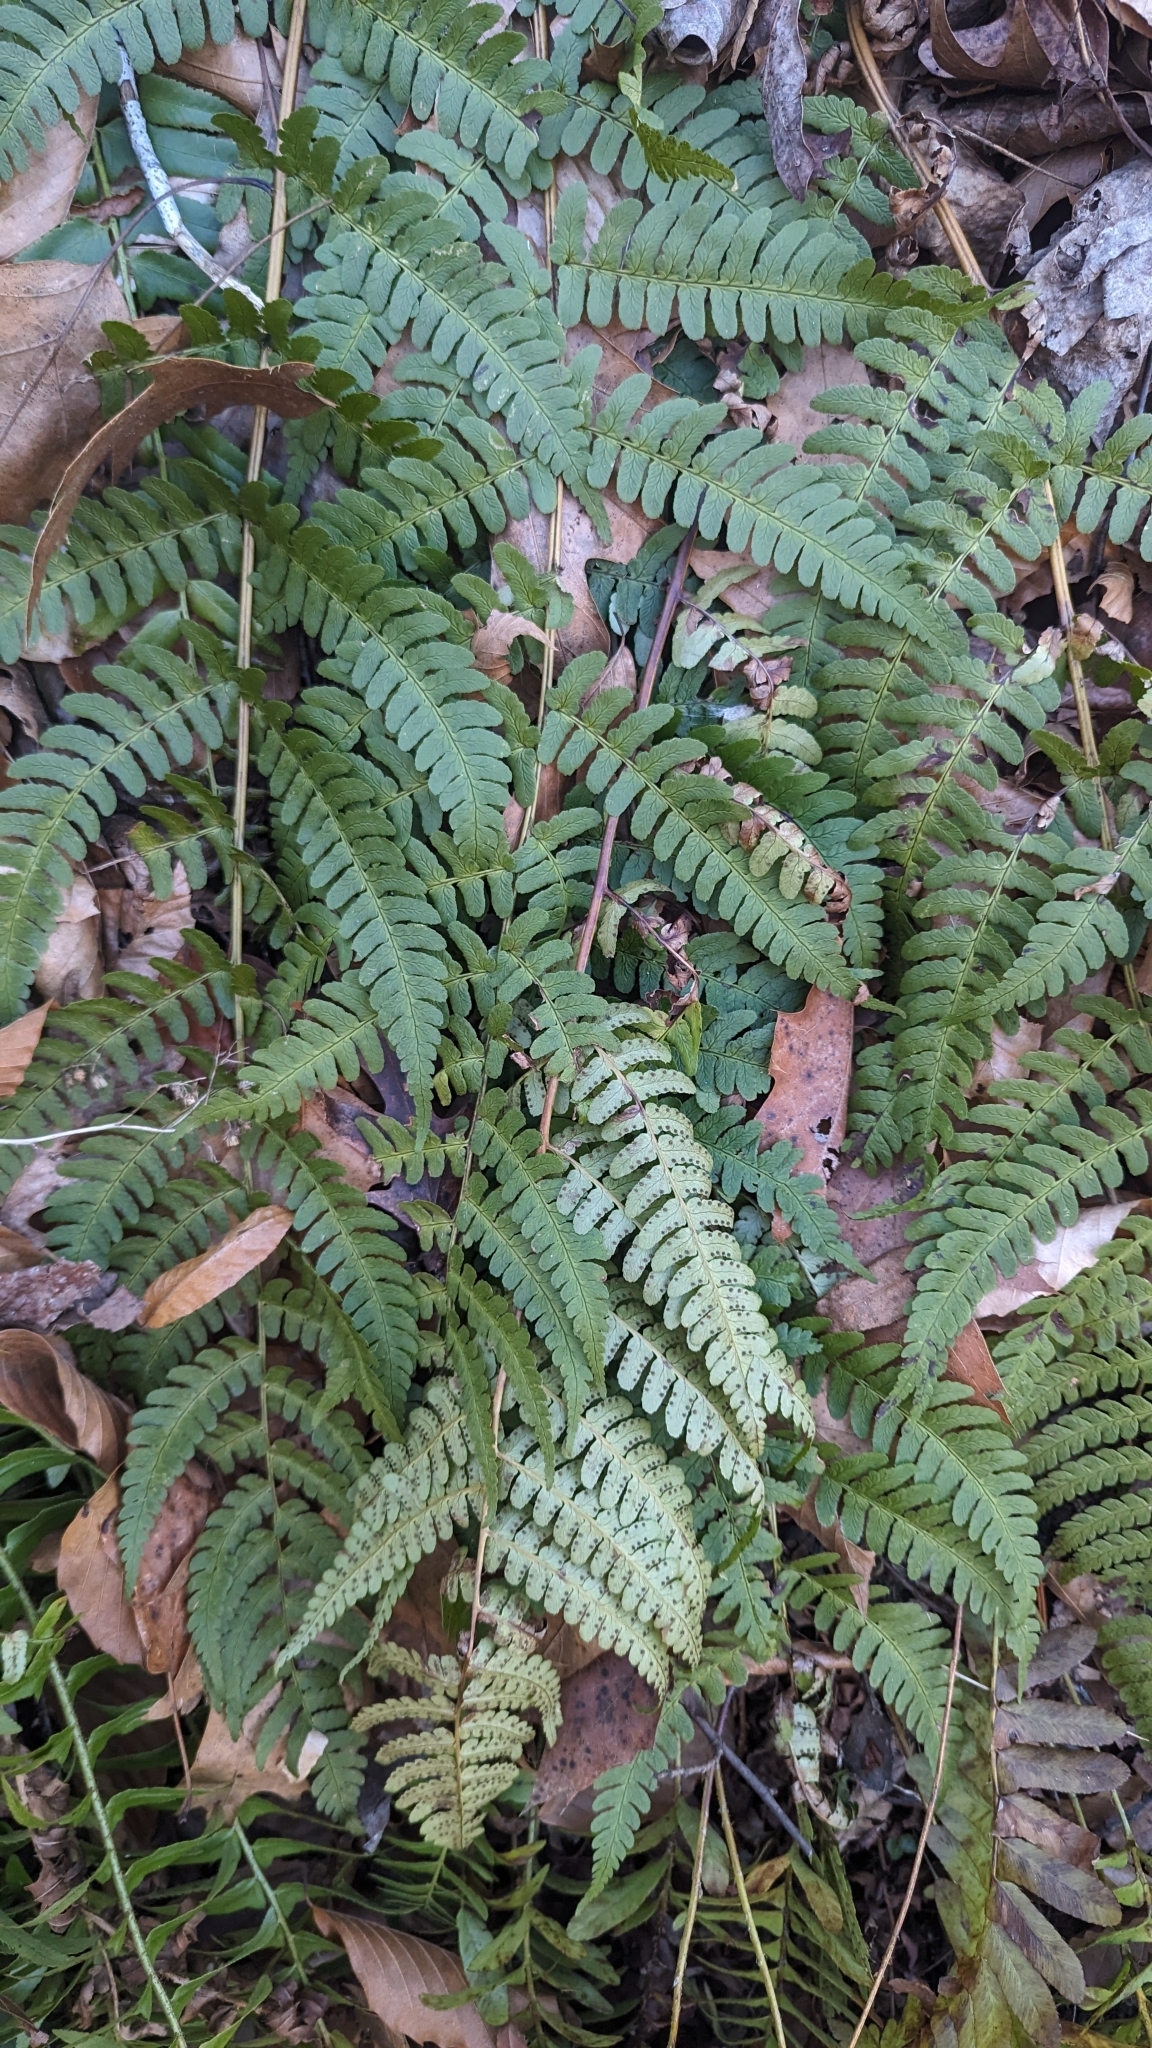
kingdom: Plantae
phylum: Tracheophyta
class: Polypodiopsida
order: Polypodiales
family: Dryopteridaceae
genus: Dryopteris
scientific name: Dryopteris marginalis
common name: Marginal wood fern
